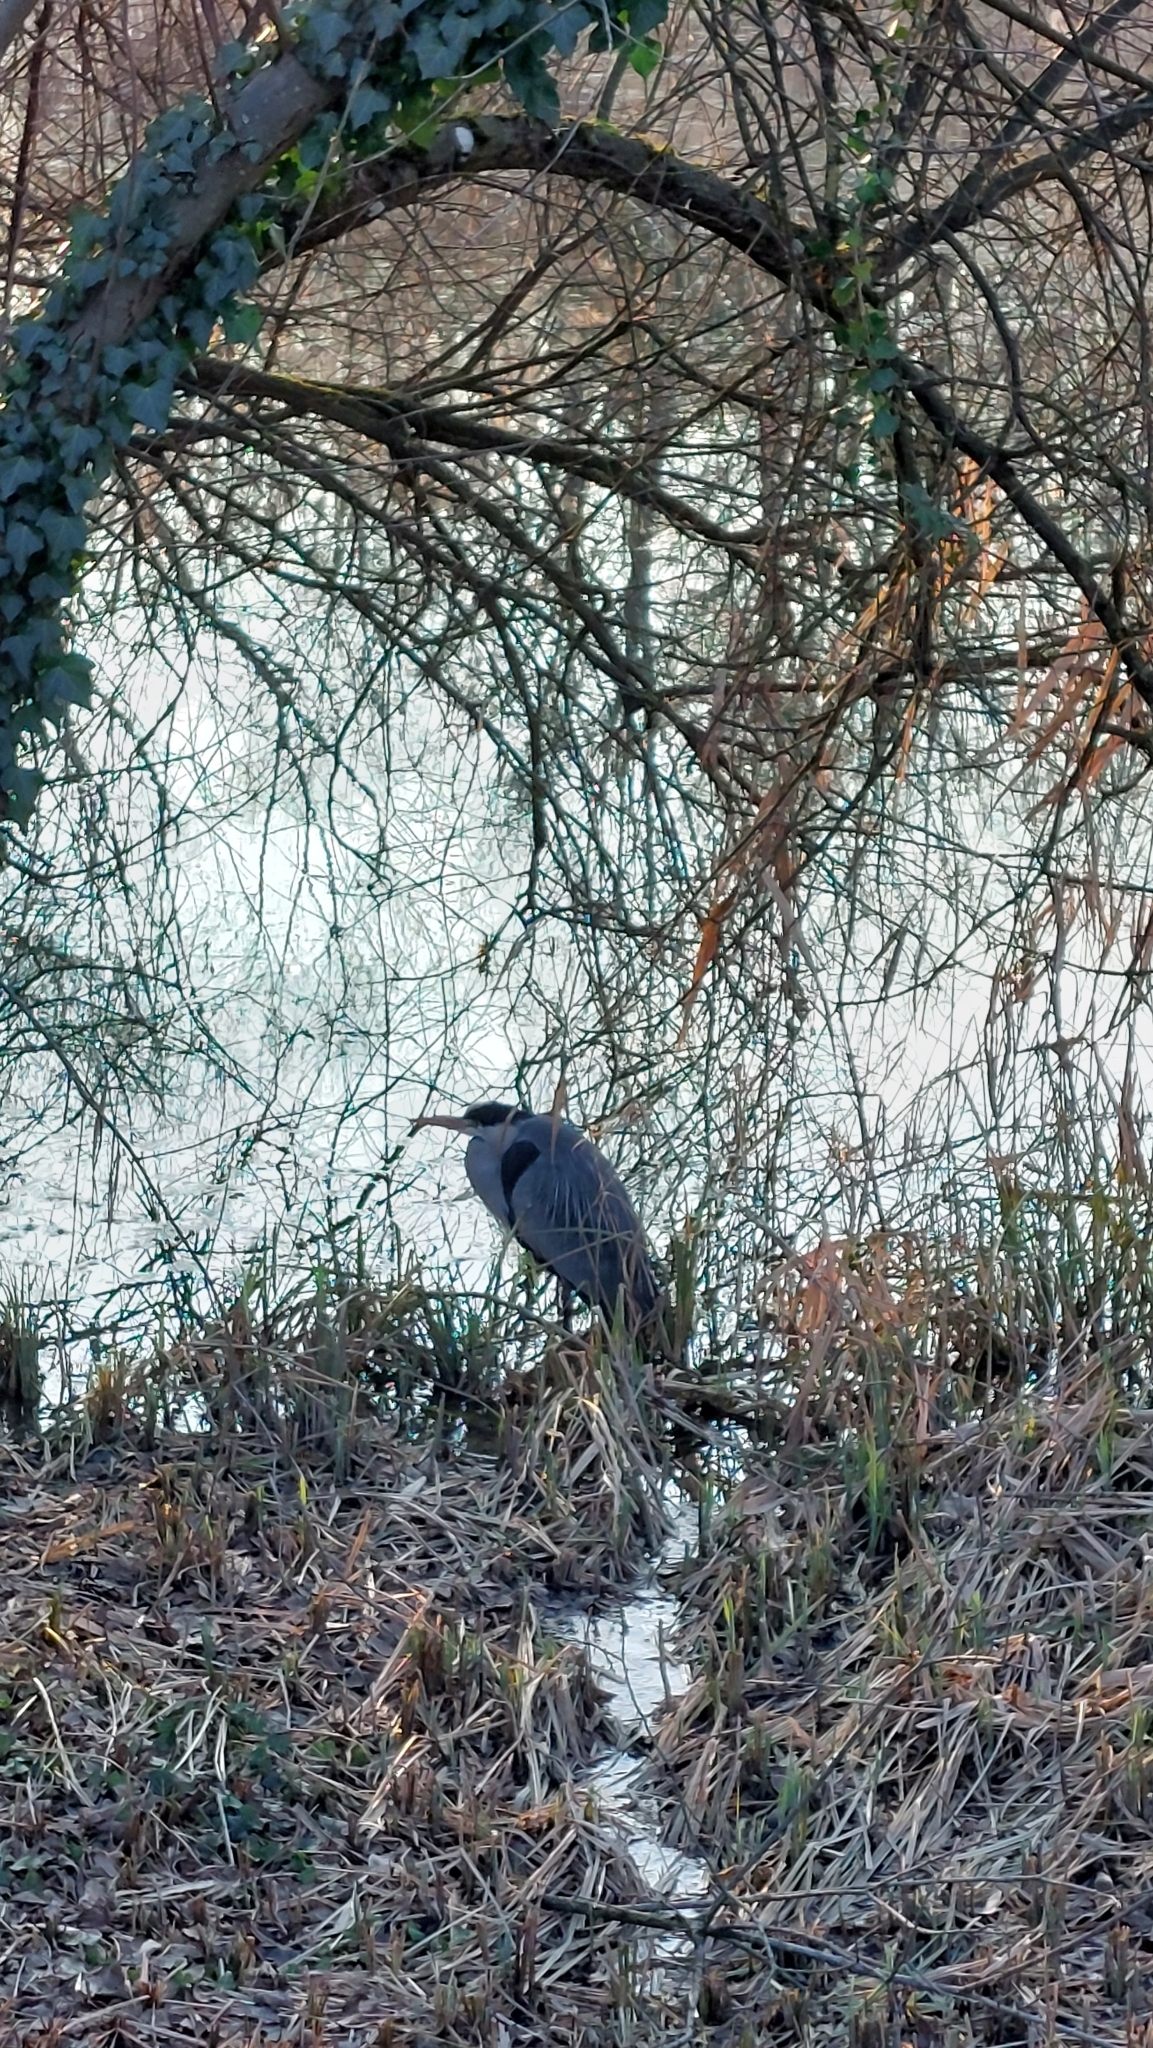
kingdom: Animalia
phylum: Chordata
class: Aves
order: Pelecaniformes
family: Ardeidae
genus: Ardea
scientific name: Ardea cinerea
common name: Grey heron
